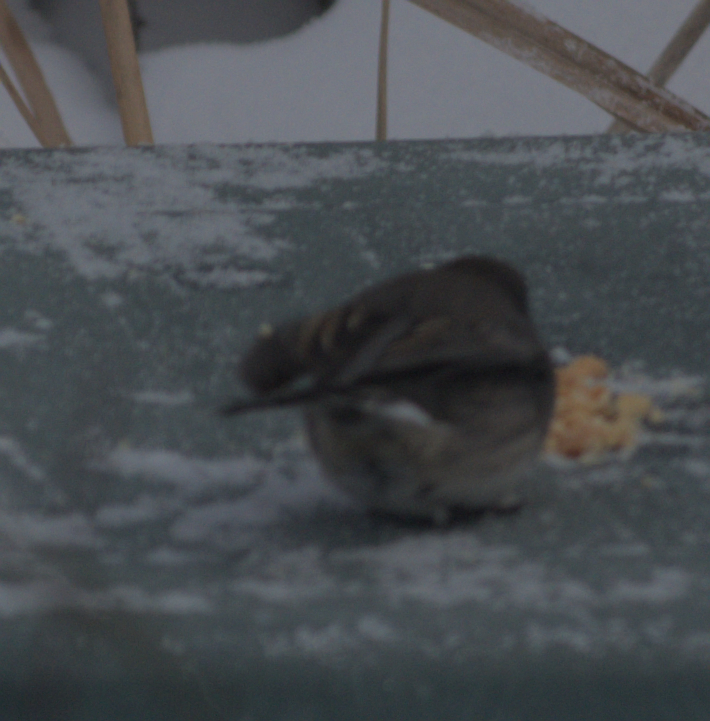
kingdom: Animalia
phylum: Chordata
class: Aves
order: Passeriformes
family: Passerellidae
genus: Junco
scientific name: Junco hyemalis
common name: Dark-eyed junco
